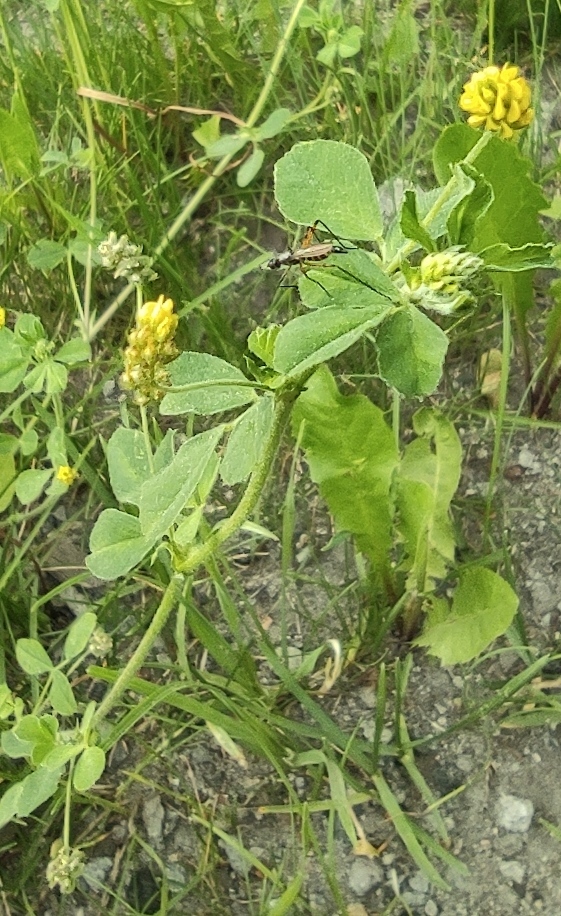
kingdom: Plantae
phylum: Tracheophyta
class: Magnoliopsida
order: Fabales
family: Fabaceae
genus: Medicago
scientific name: Medicago lupulina
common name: Black medick
